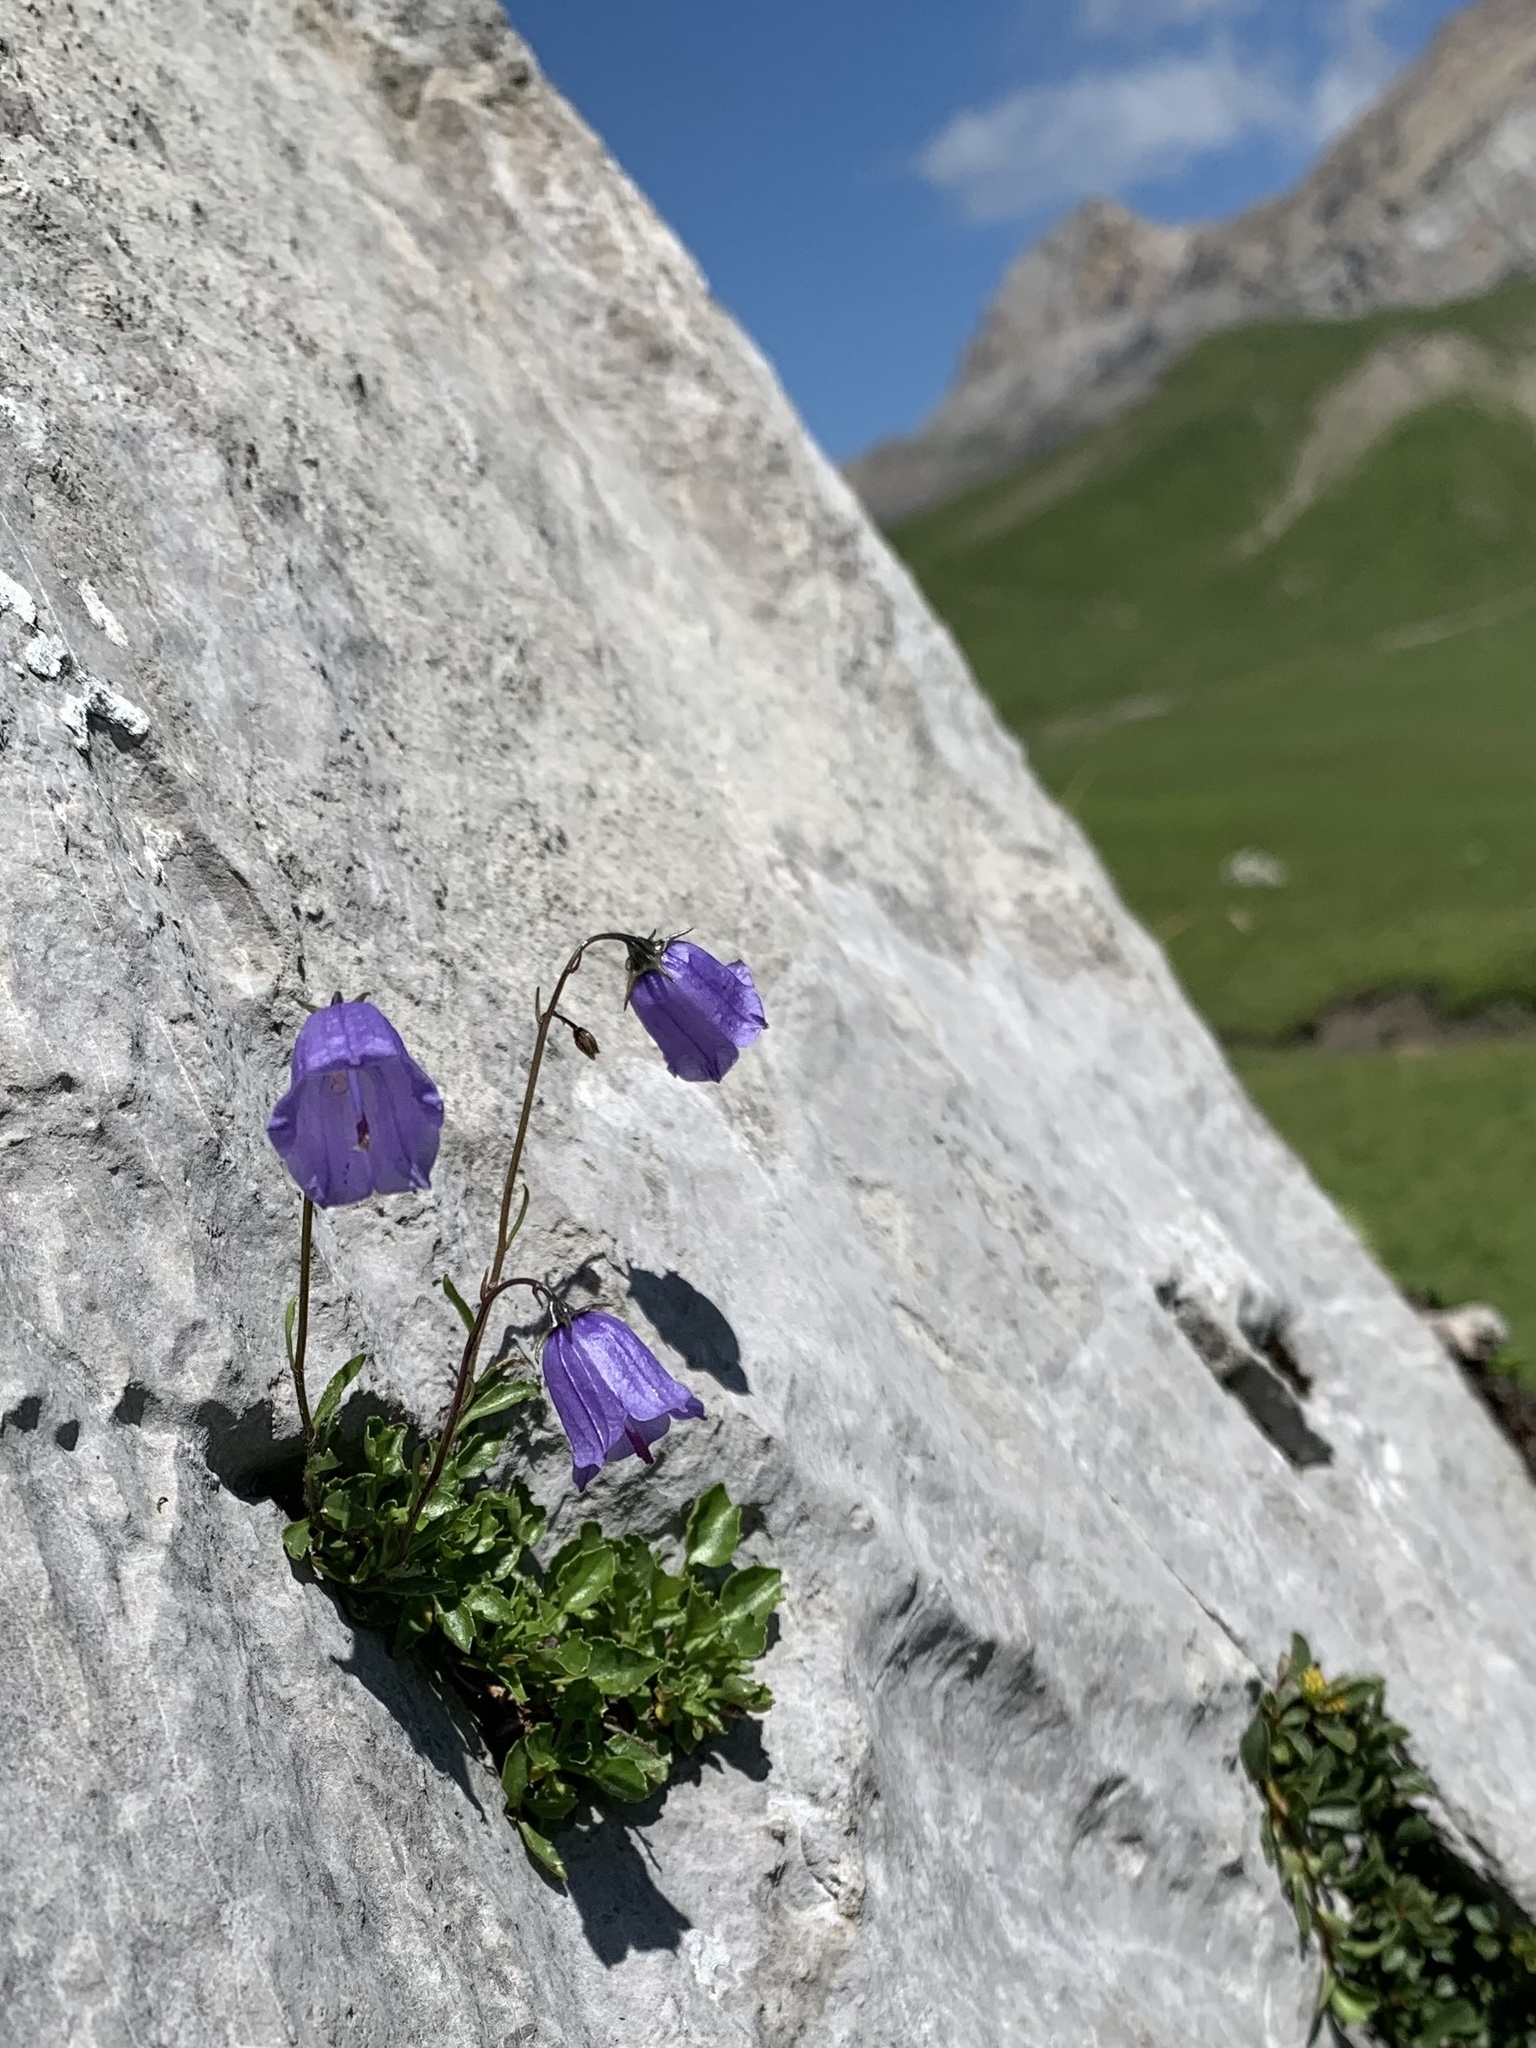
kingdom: Plantae
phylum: Tracheophyta
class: Magnoliopsida
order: Asterales
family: Campanulaceae
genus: Campanula
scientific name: Campanula cochleariifolia
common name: Fairies'-thimbles
